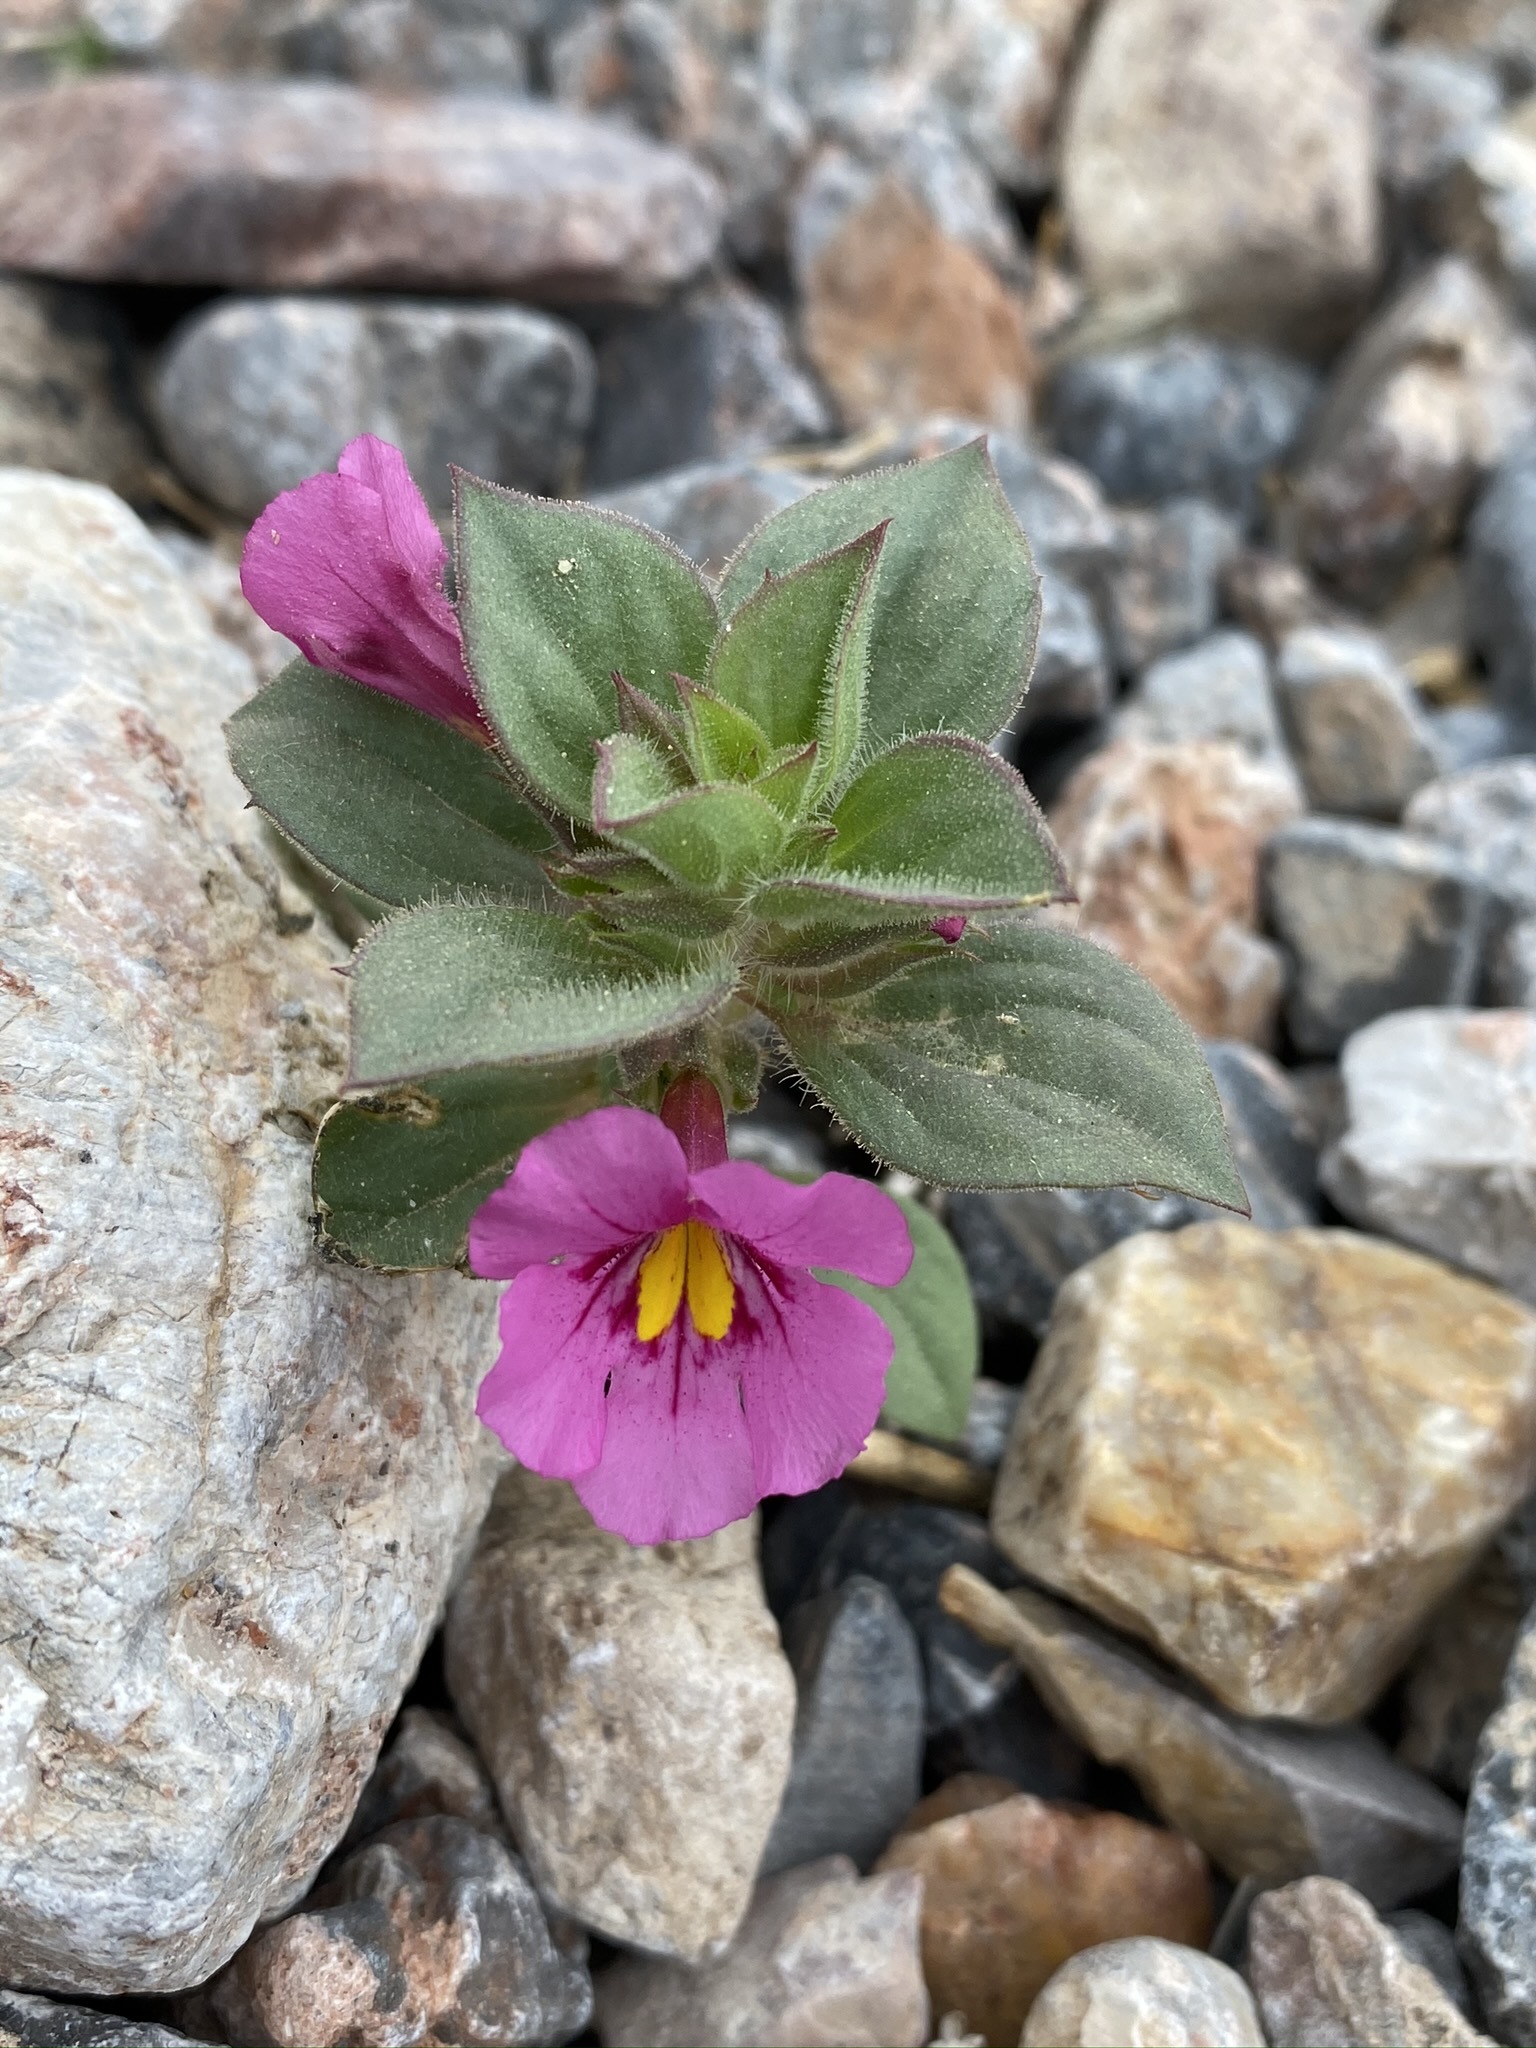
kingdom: Plantae
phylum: Tracheophyta
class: Magnoliopsida
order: Lamiales
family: Phrymaceae
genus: Diplacus
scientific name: Diplacus bigelovii
